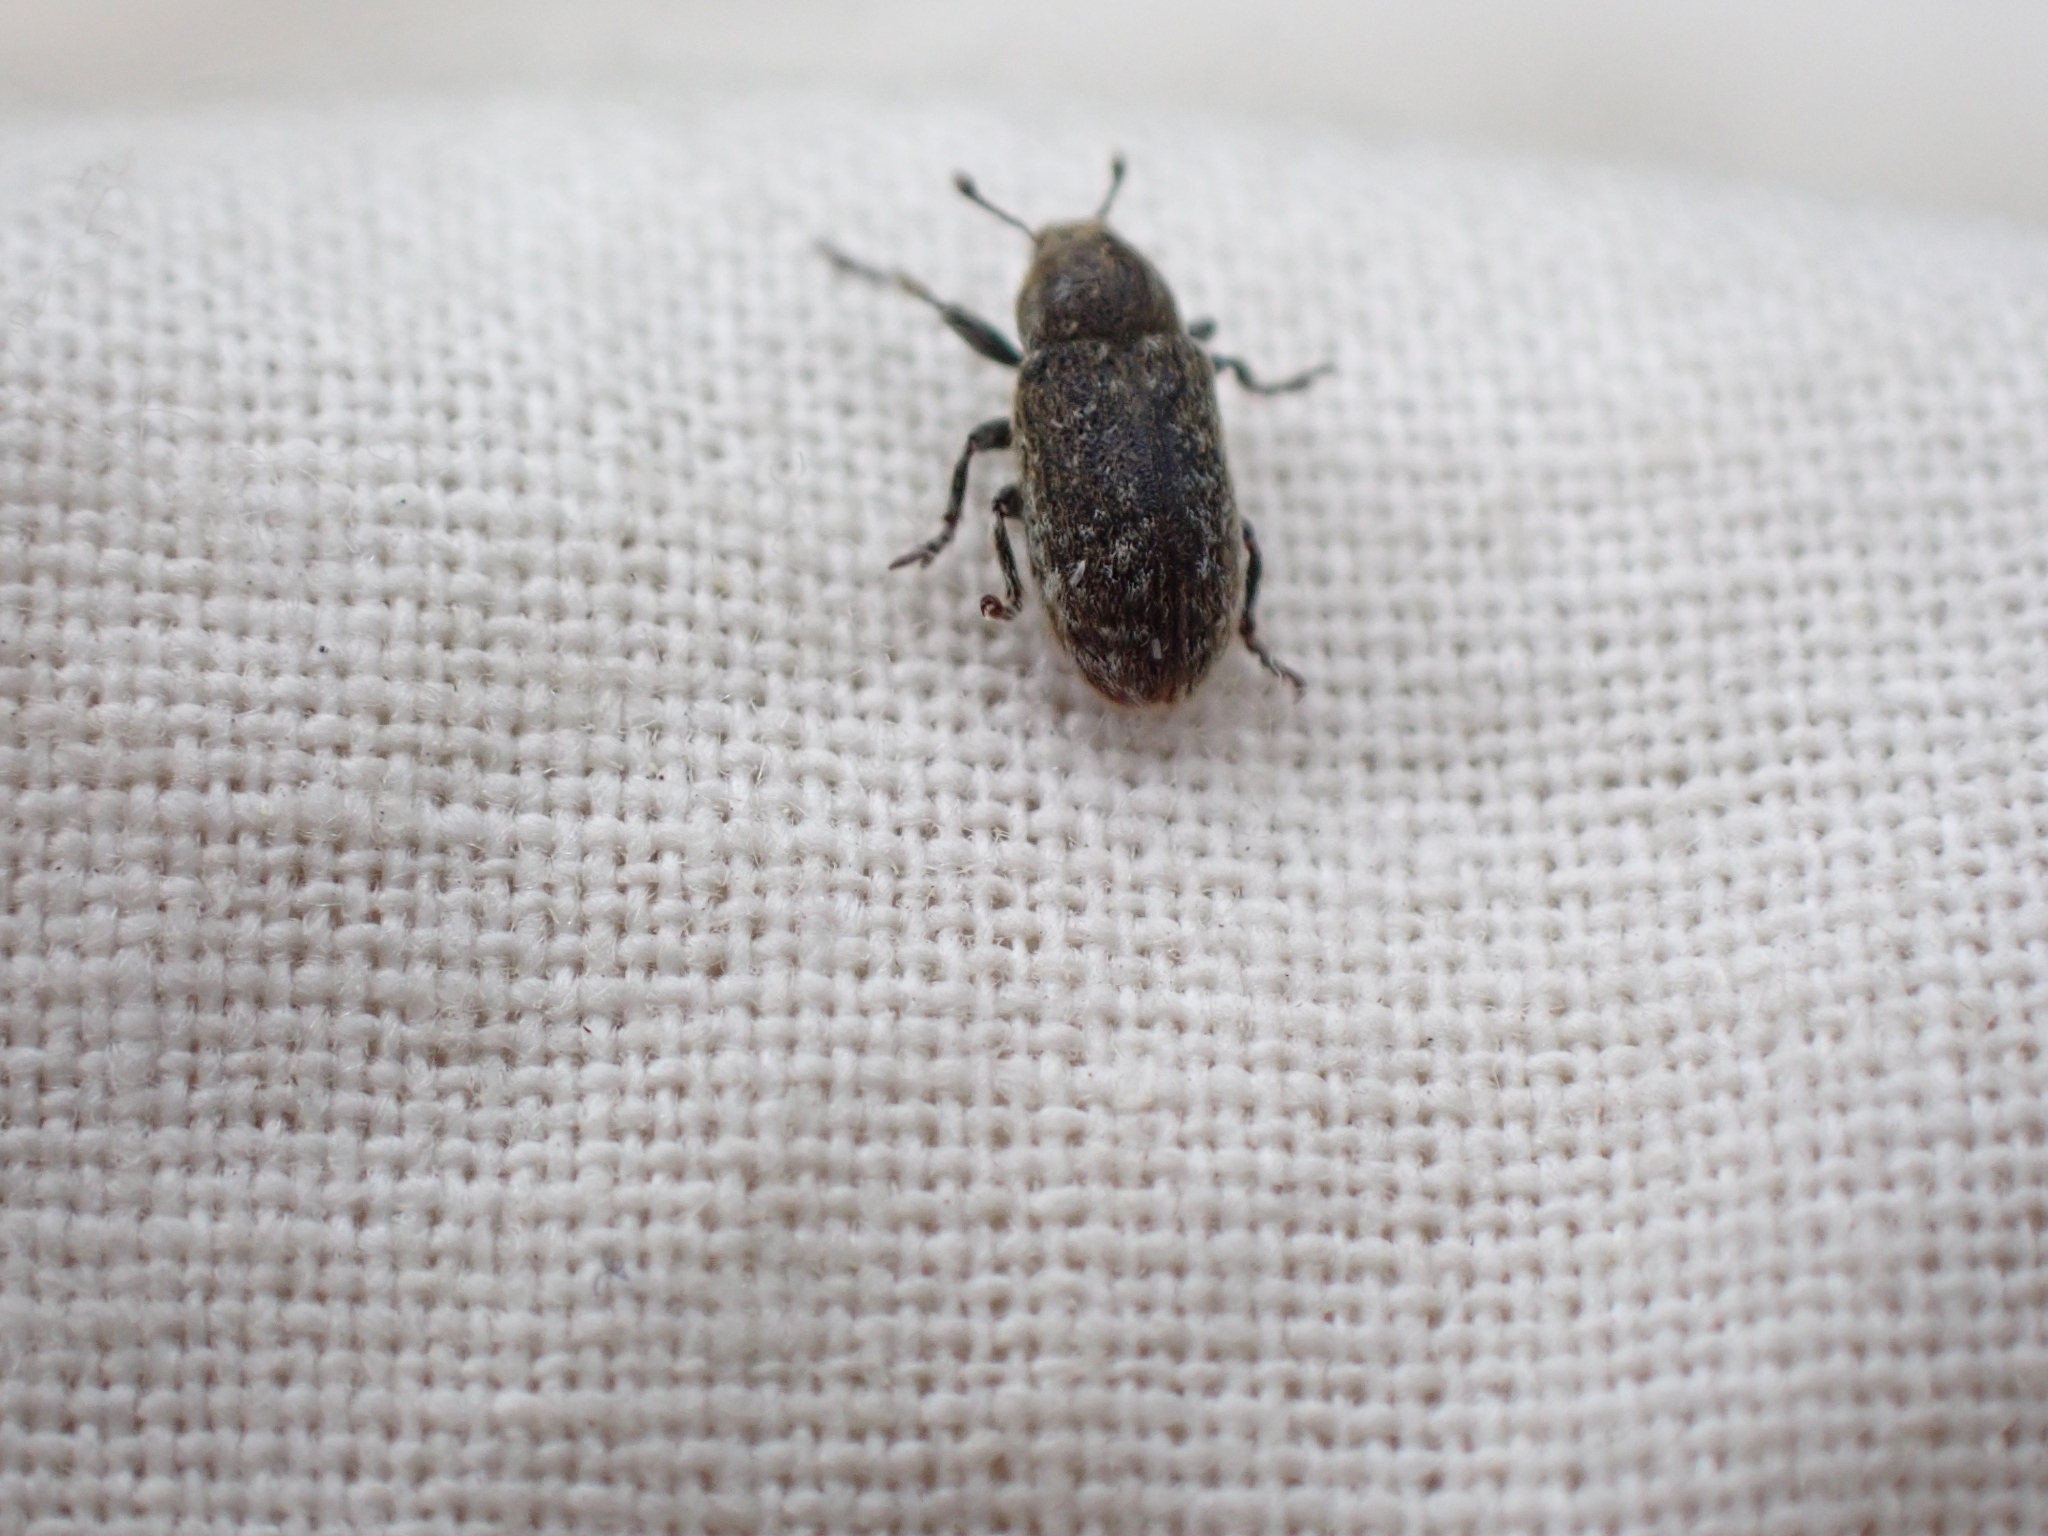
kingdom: Animalia
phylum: Arthropoda
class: Insecta
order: Coleoptera
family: Curculionidae
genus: Bangasternus
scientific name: Bangasternus fausti
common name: Broad-nosed knapweed seedhead weevil
